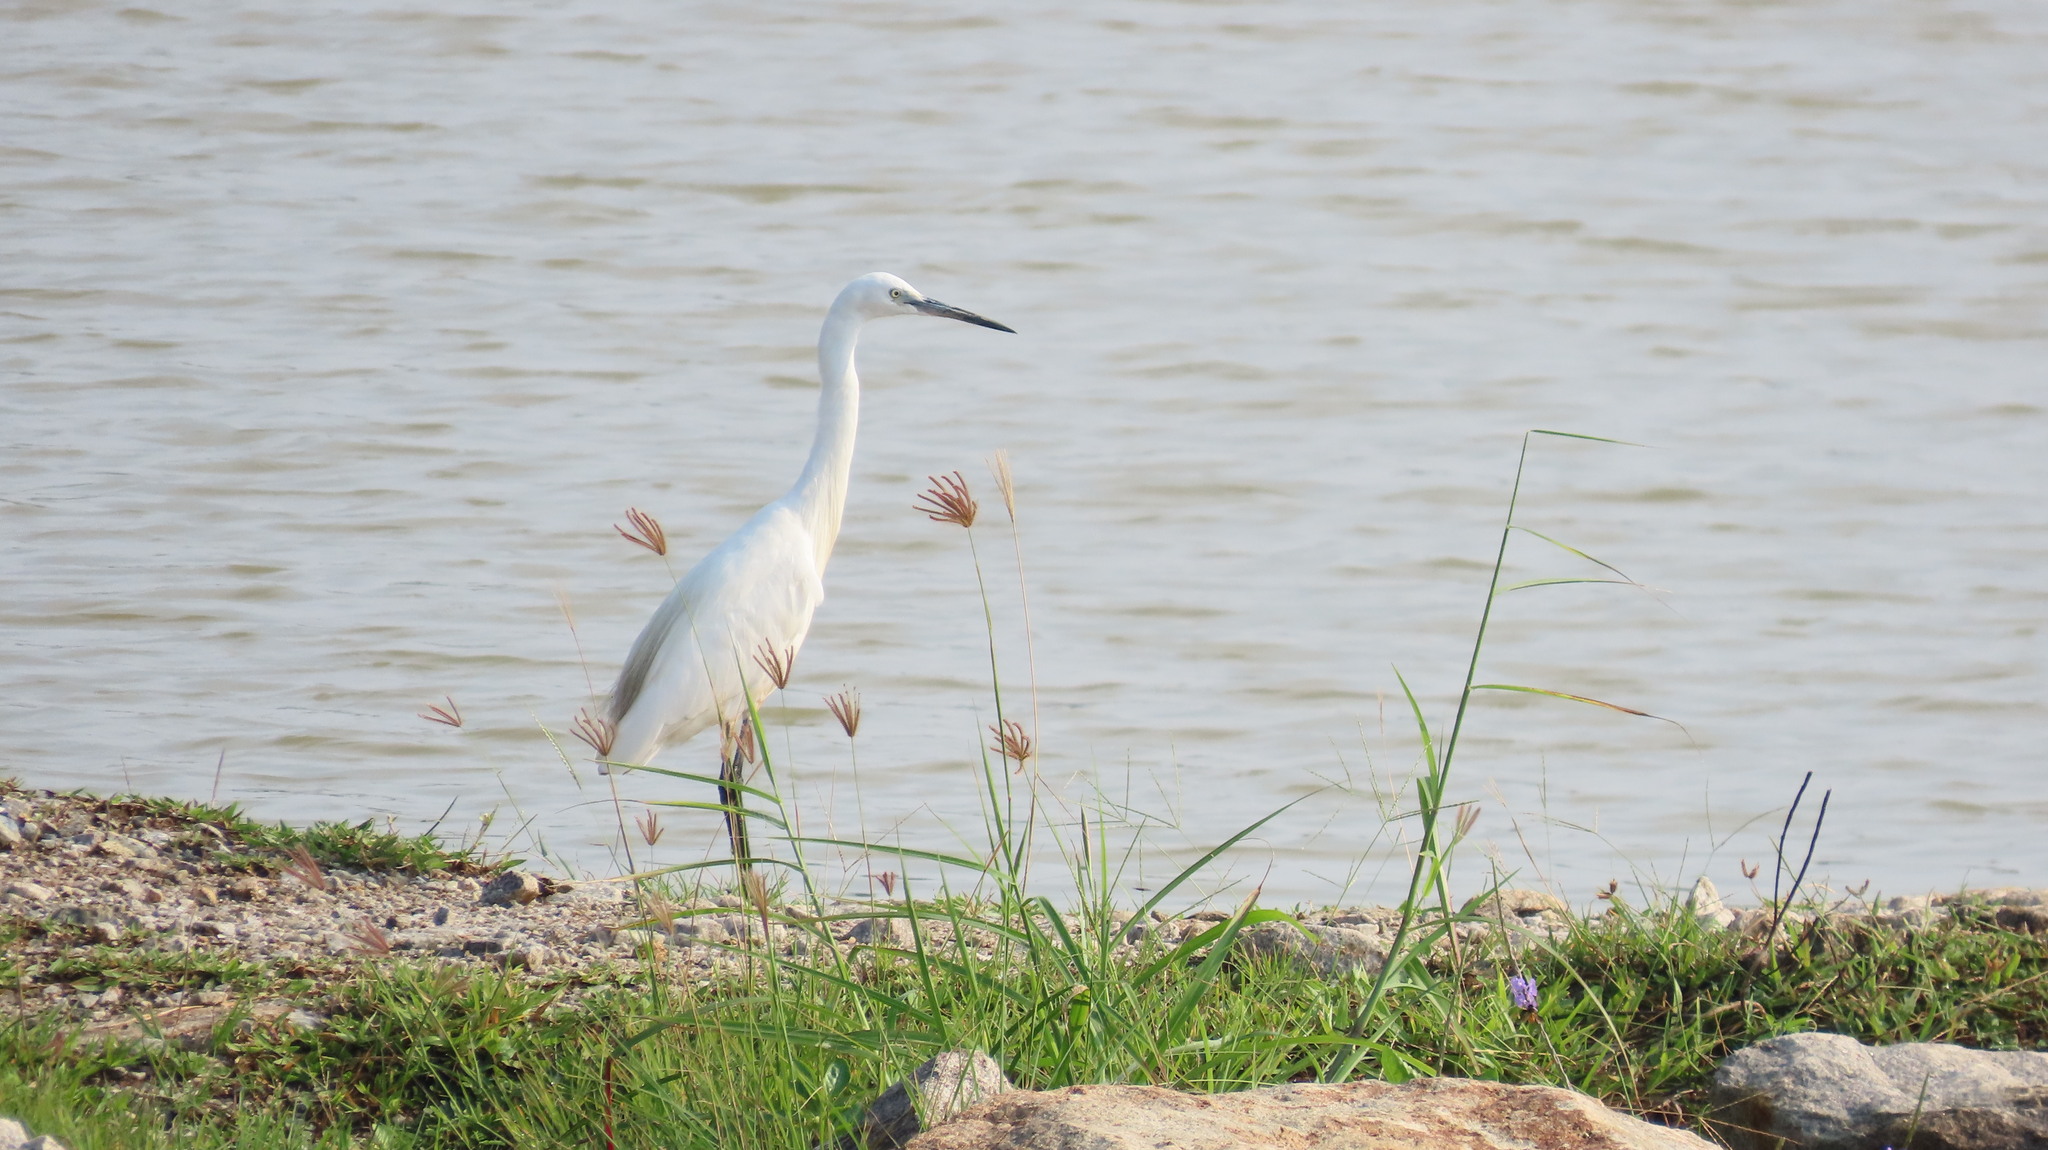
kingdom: Animalia
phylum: Chordata
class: Aves
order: Pelecaniformes
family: Ardeidae
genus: Egretta
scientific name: Egretta garzetta
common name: Little egret
